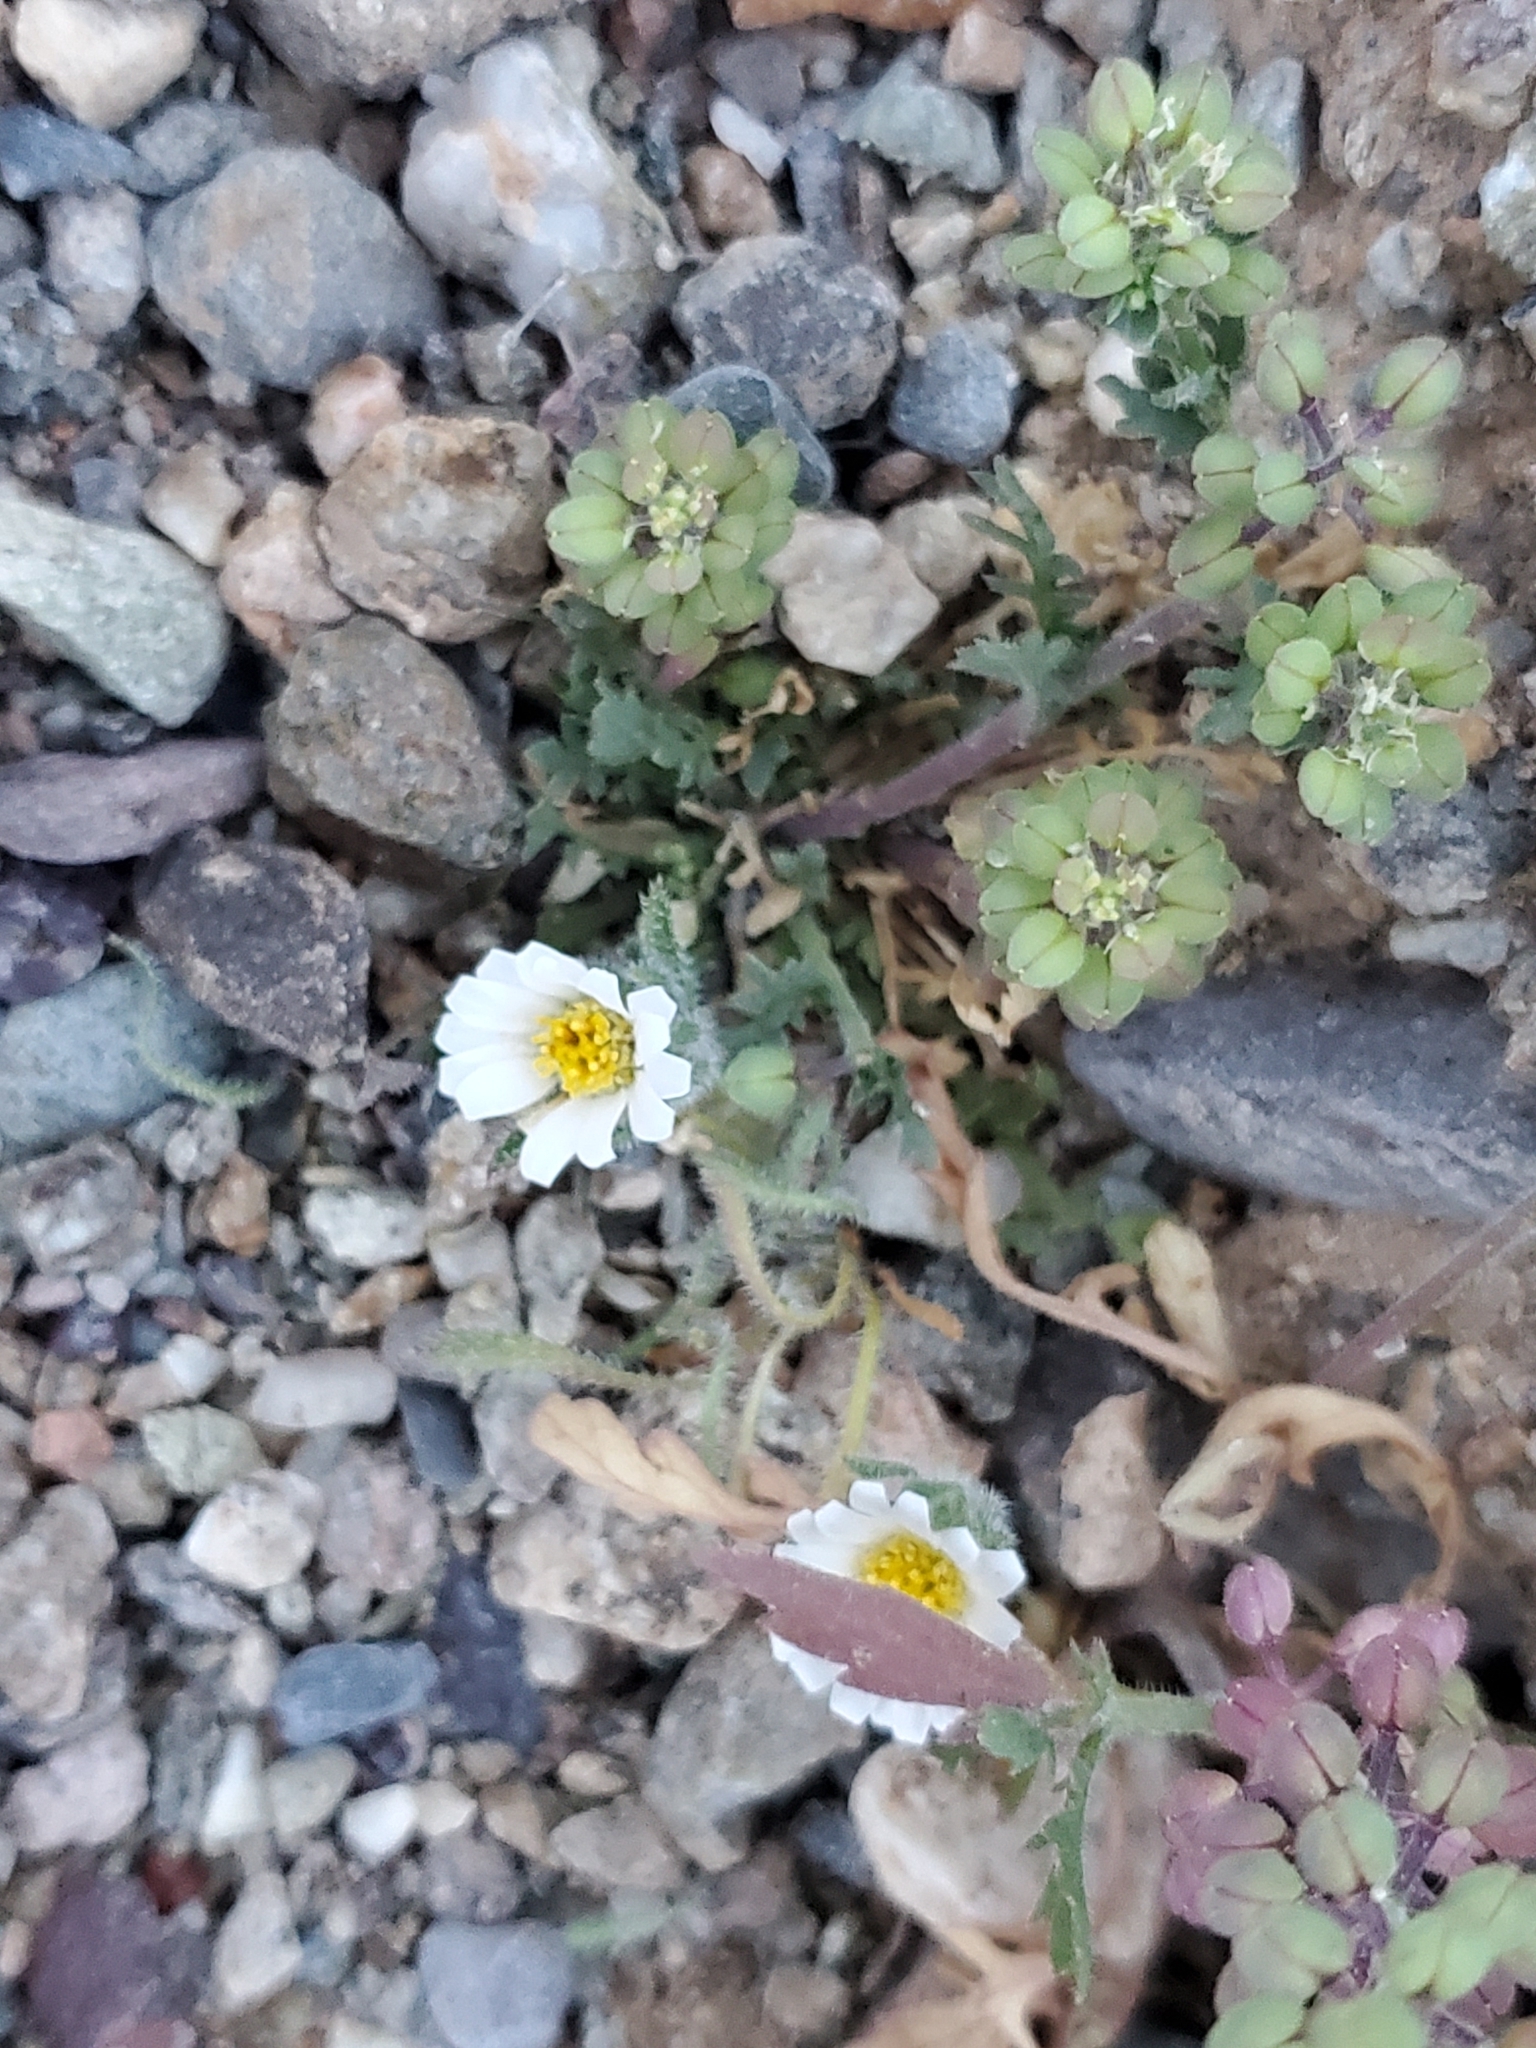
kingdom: Plantae
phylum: Tracheophyta
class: Magnoliopsida
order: Asterales
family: Asteraceae
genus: Monoptilon
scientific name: Monoptilon bellioides
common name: Bristly desertstar
